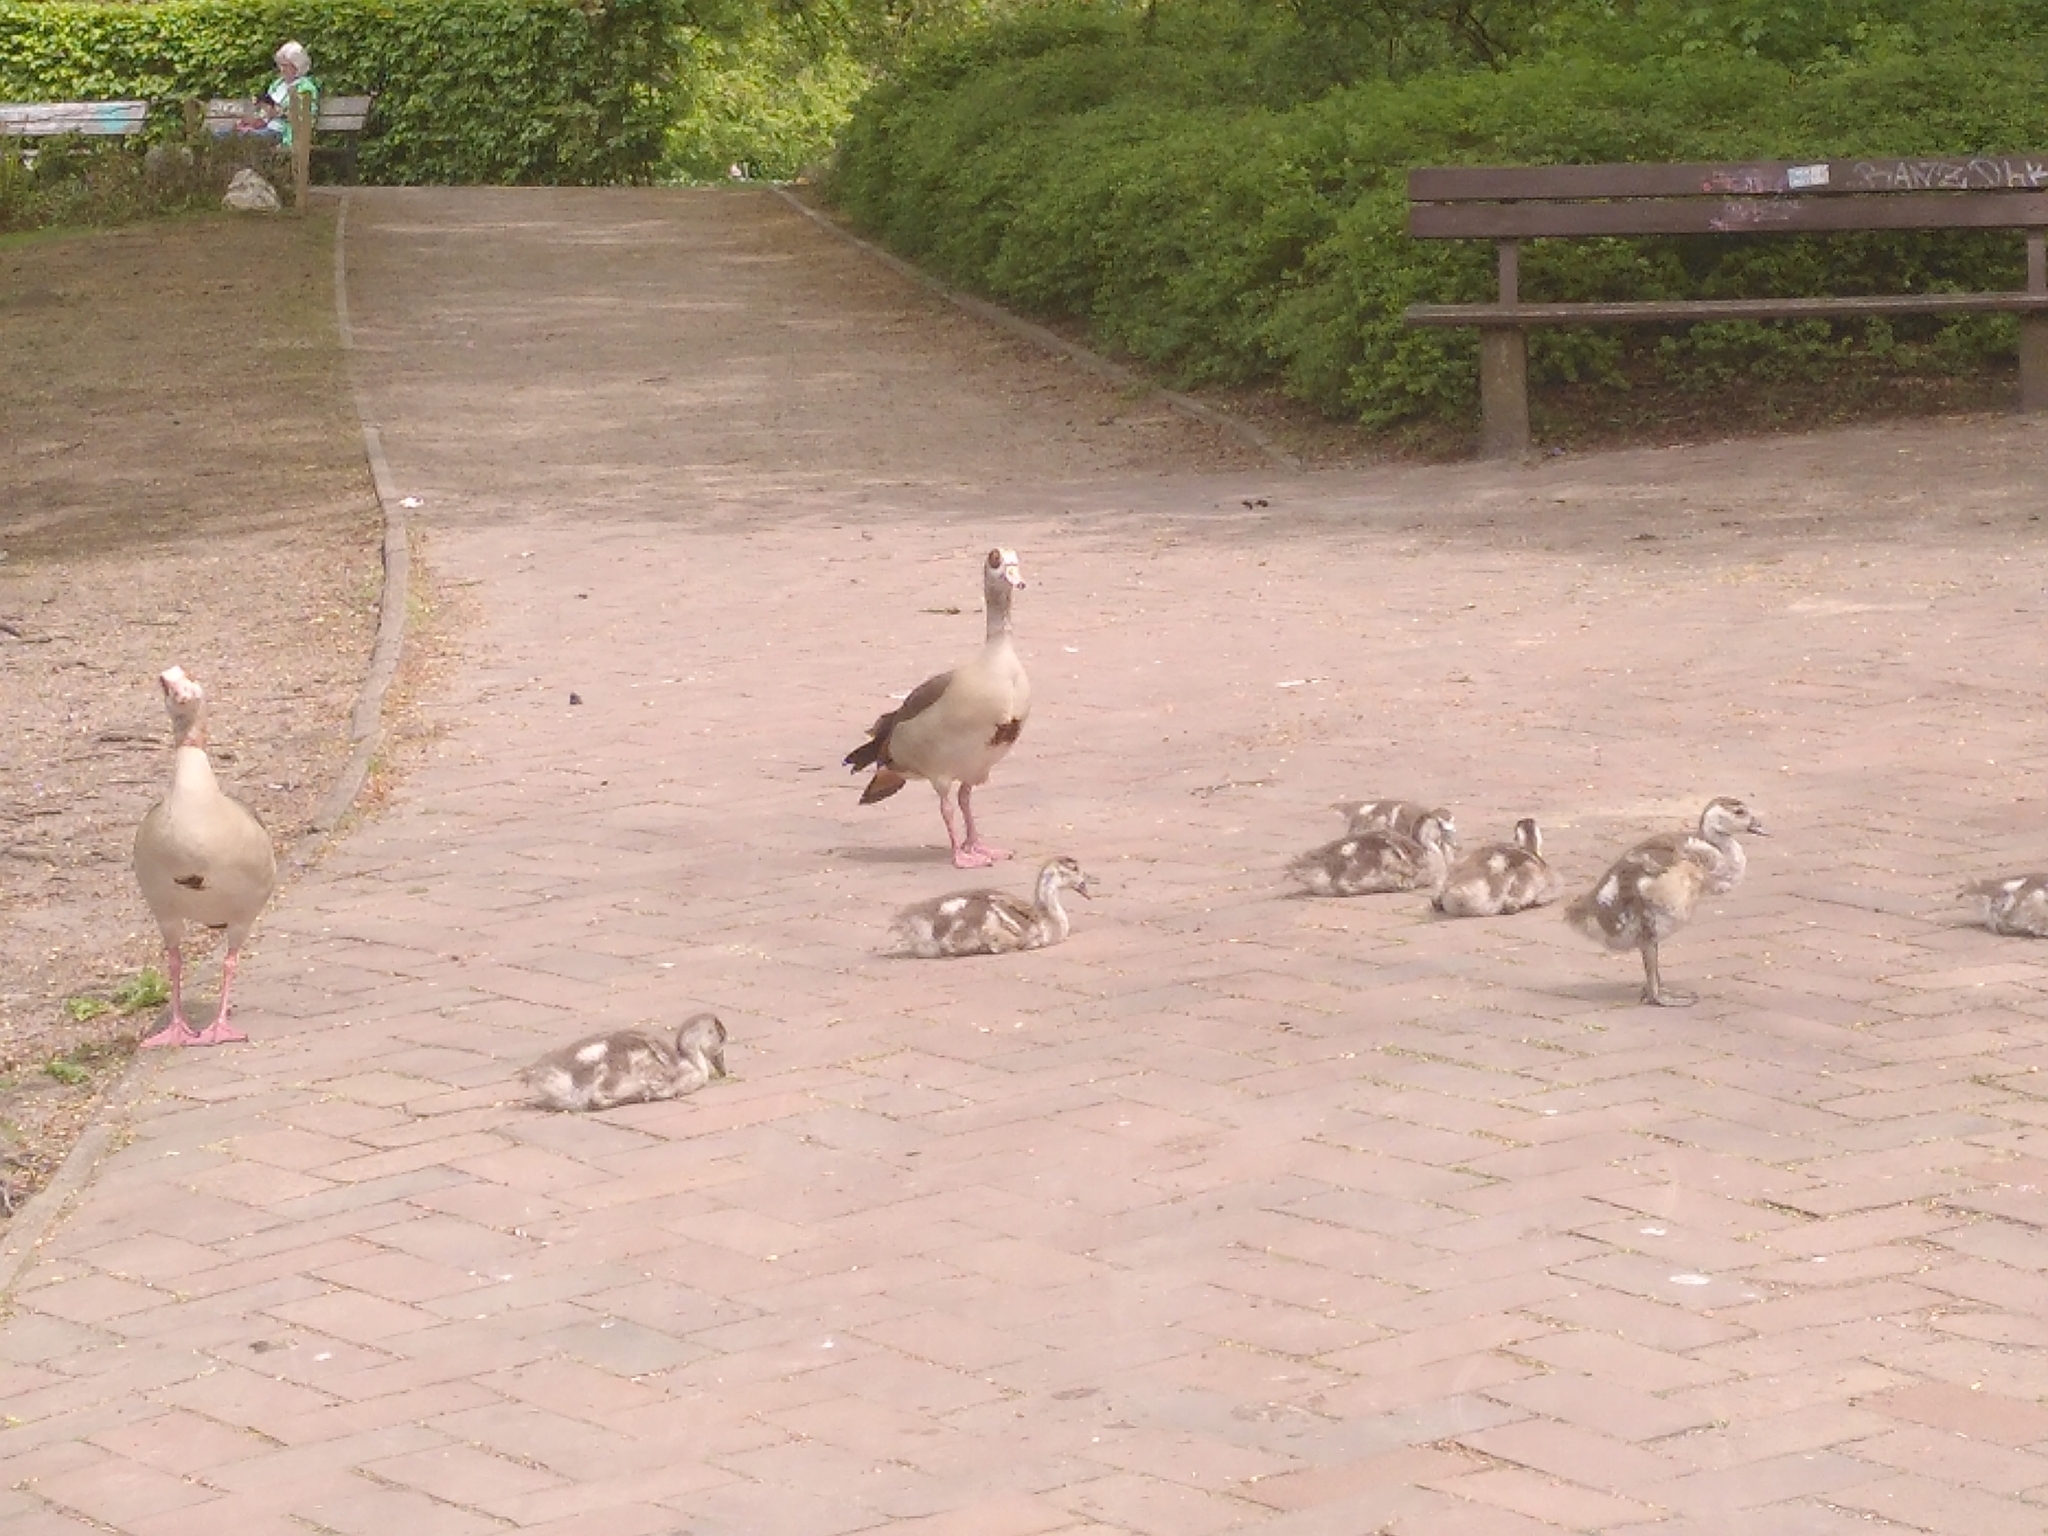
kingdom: Animalia
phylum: Chordata
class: Aves
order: Anseriformes
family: Anatidae
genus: Alopochen
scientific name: Alopochen aegyptiaca
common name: Egyptian goose
